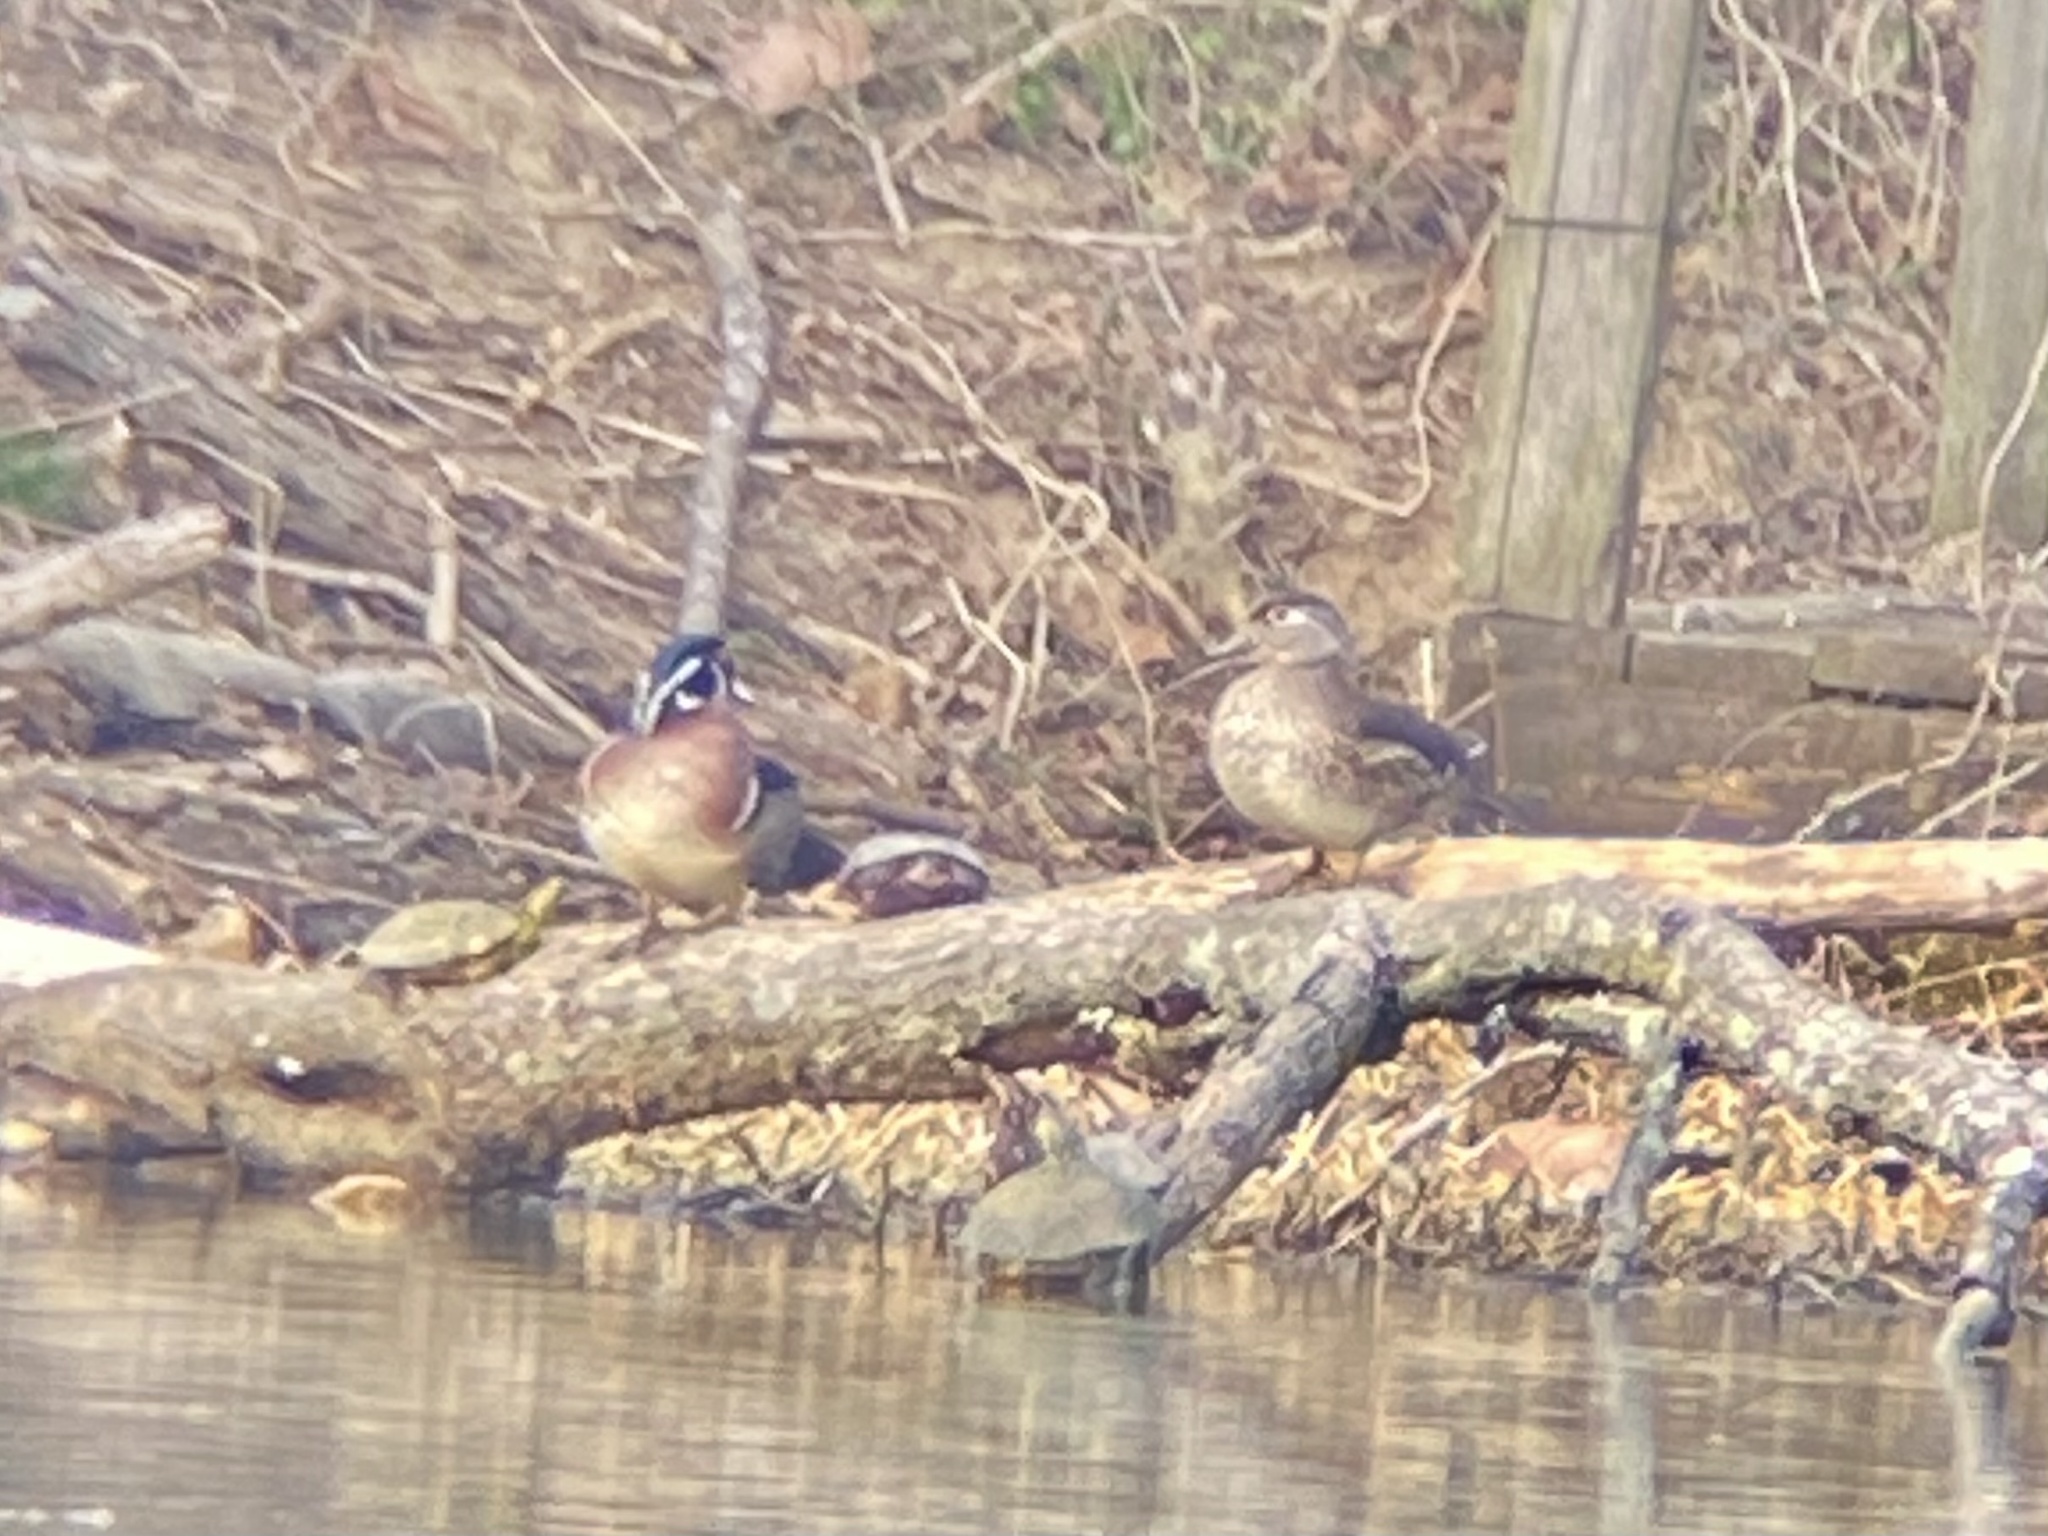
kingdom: Animalia
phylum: Chordata
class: Aves
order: Anseriformes
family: Anatidae
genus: Aix
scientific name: Aix sponsa
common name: Wood duck
